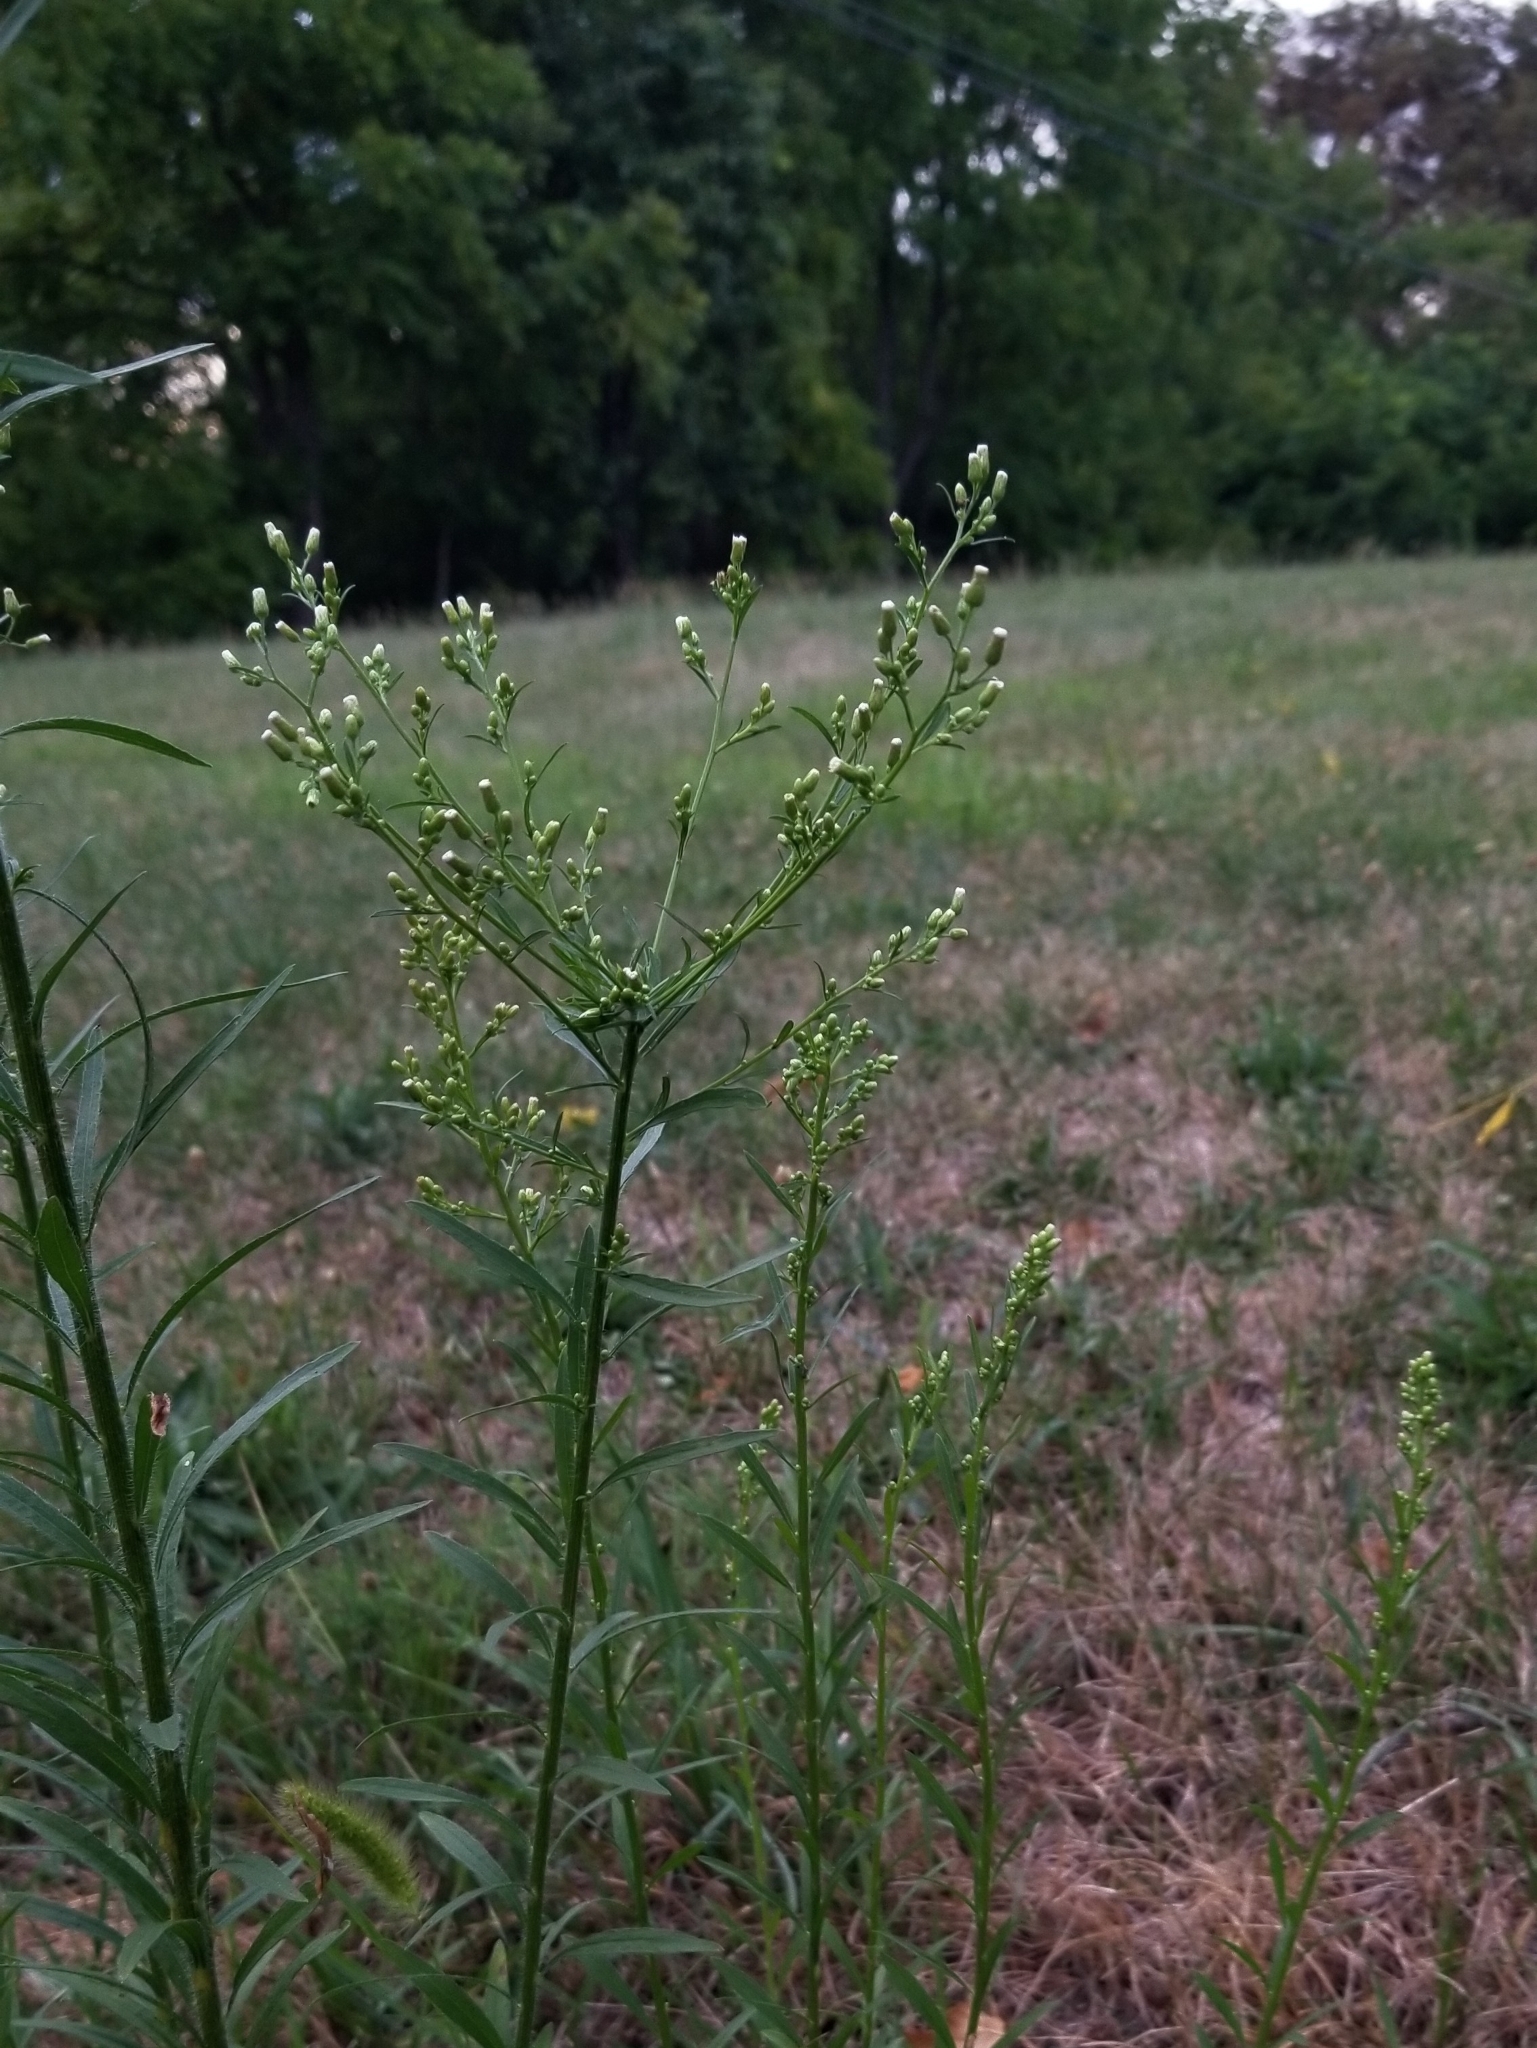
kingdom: Plantae
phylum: Tracheophyta
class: Magnoliopsida
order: Asterales
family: Asteraceae
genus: Erigeron
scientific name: Erigeron canadensis
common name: Canadian fleabane
